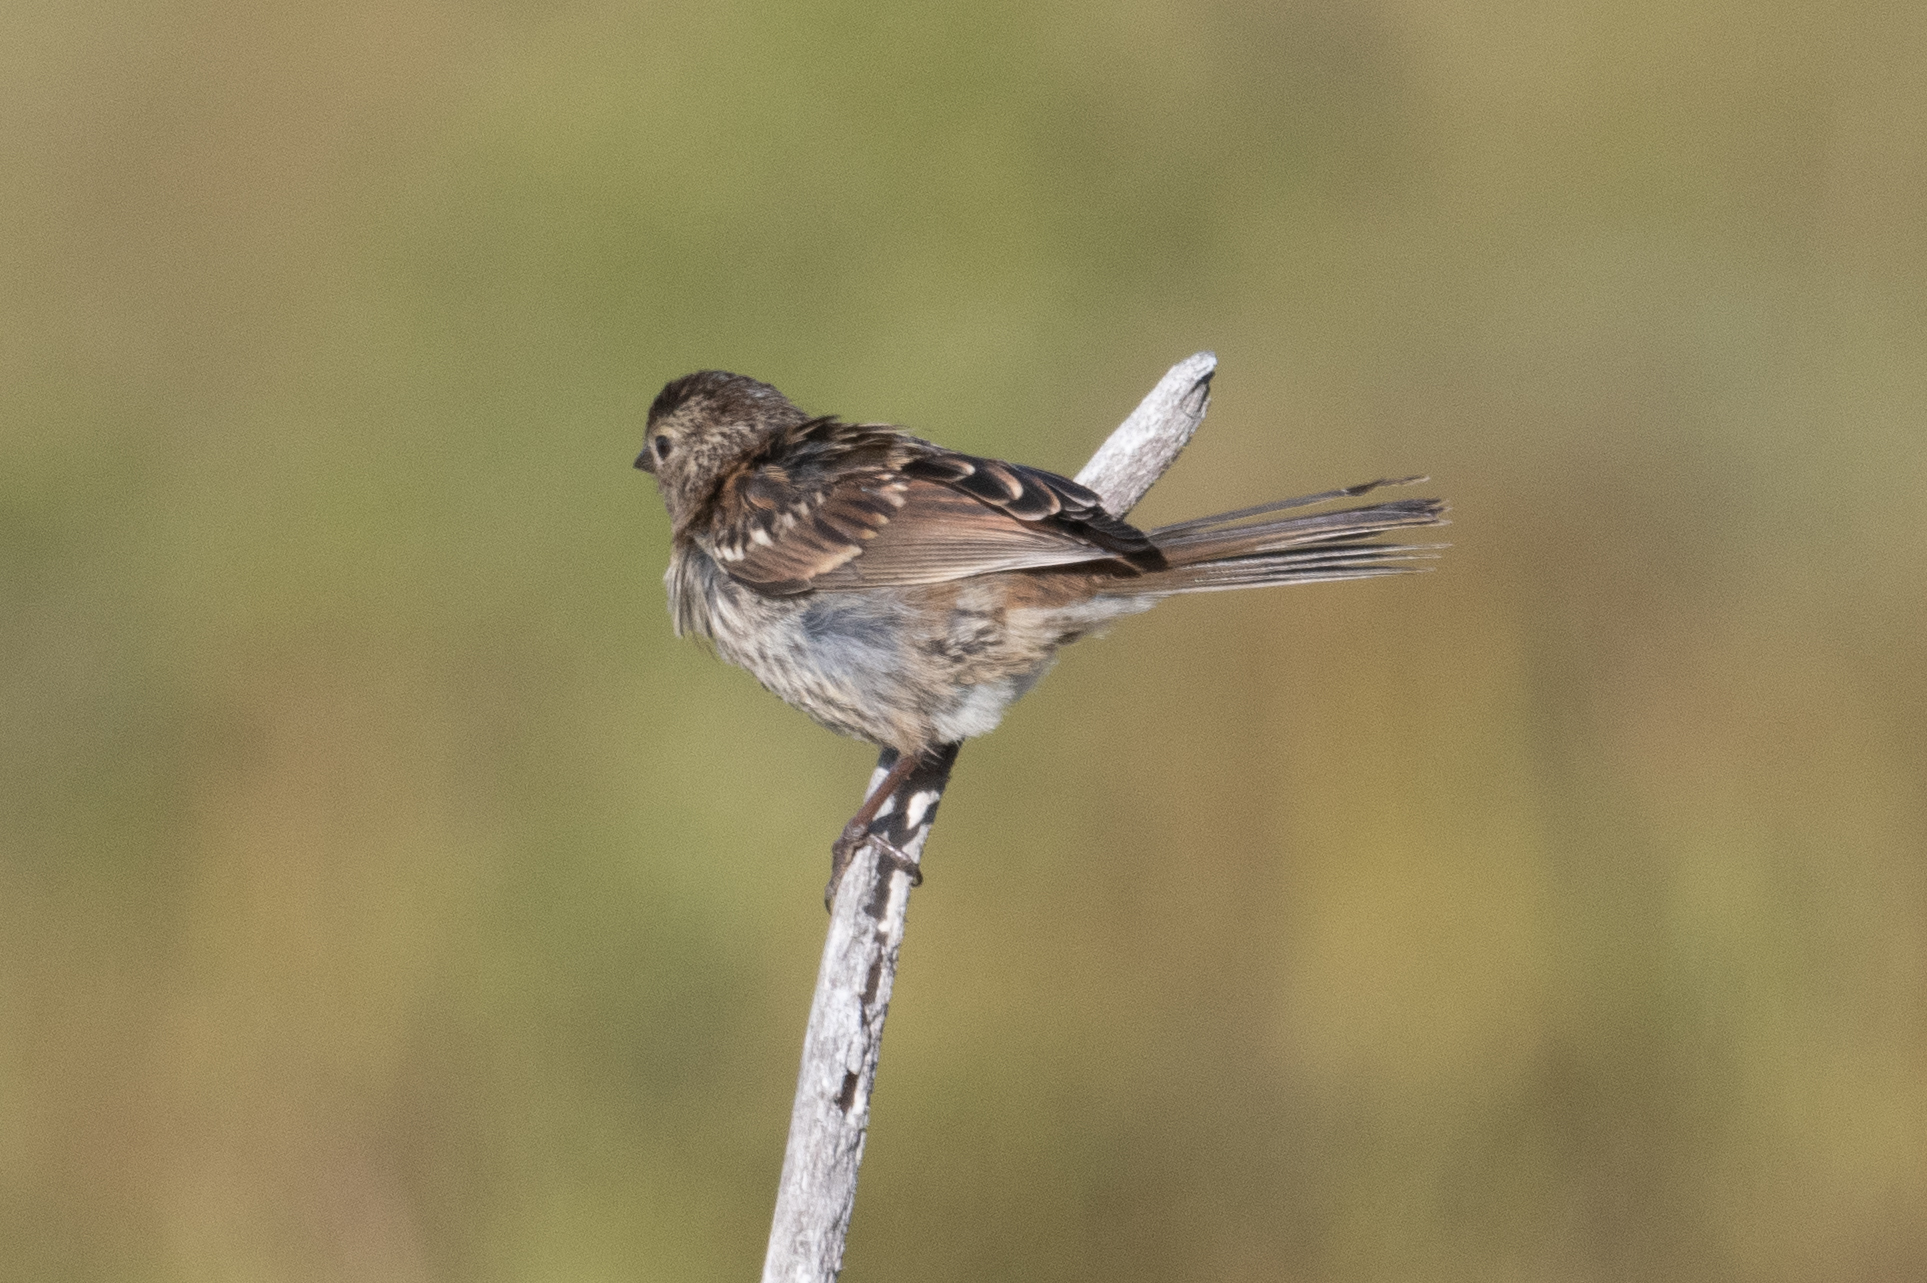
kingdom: Animalia
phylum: Chordata
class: Aves
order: Passeriformes
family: Passerellidae
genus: Zonotrichia
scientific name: Zonotrichia leucophrys
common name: White-crowned sparrow
